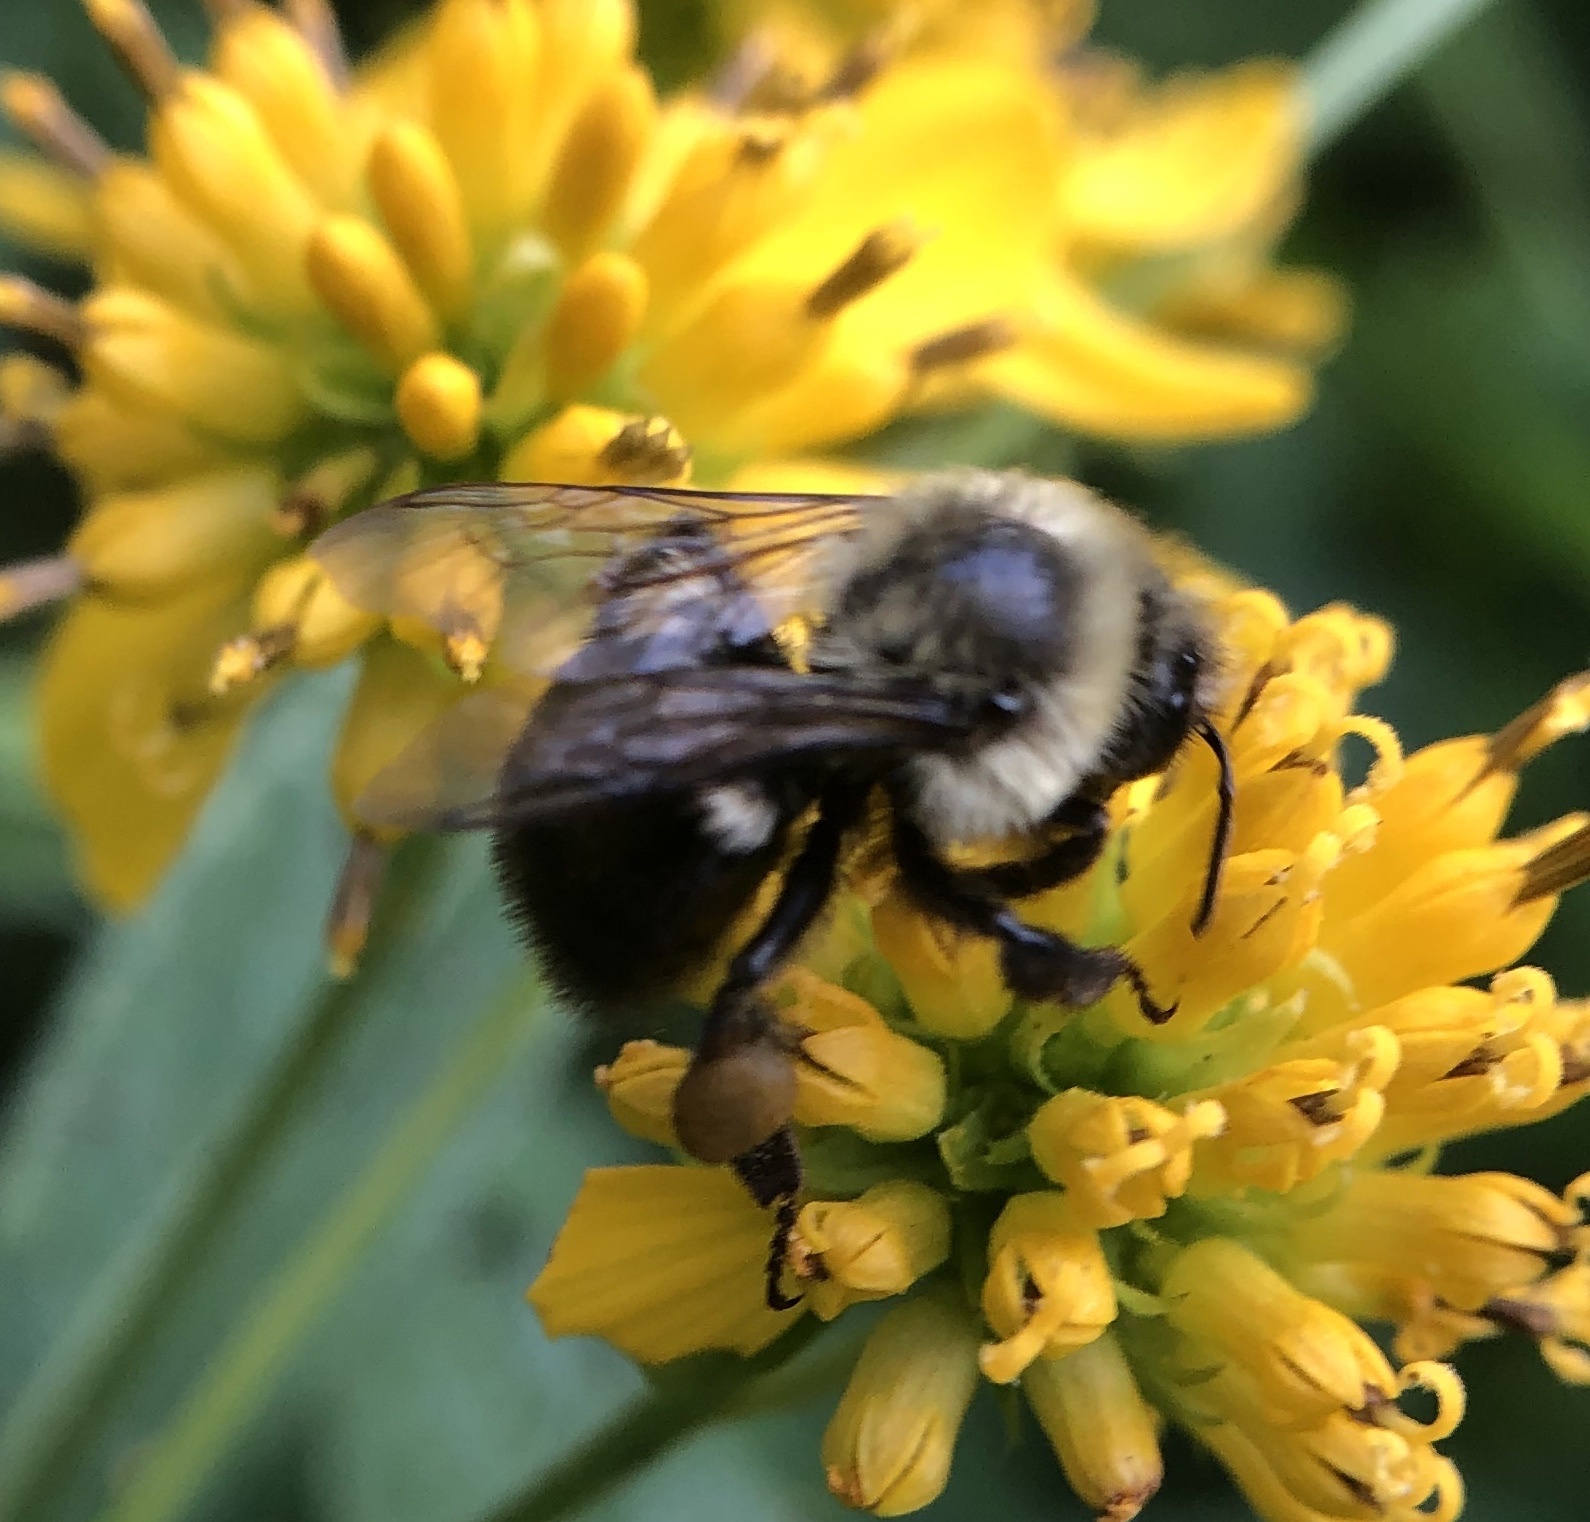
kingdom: Animalia
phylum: Arthropoda
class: Insecta
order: Hymenoptera
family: Apidae
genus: Bombus
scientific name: Bombus impatiens
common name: Common eastern bumble bee
